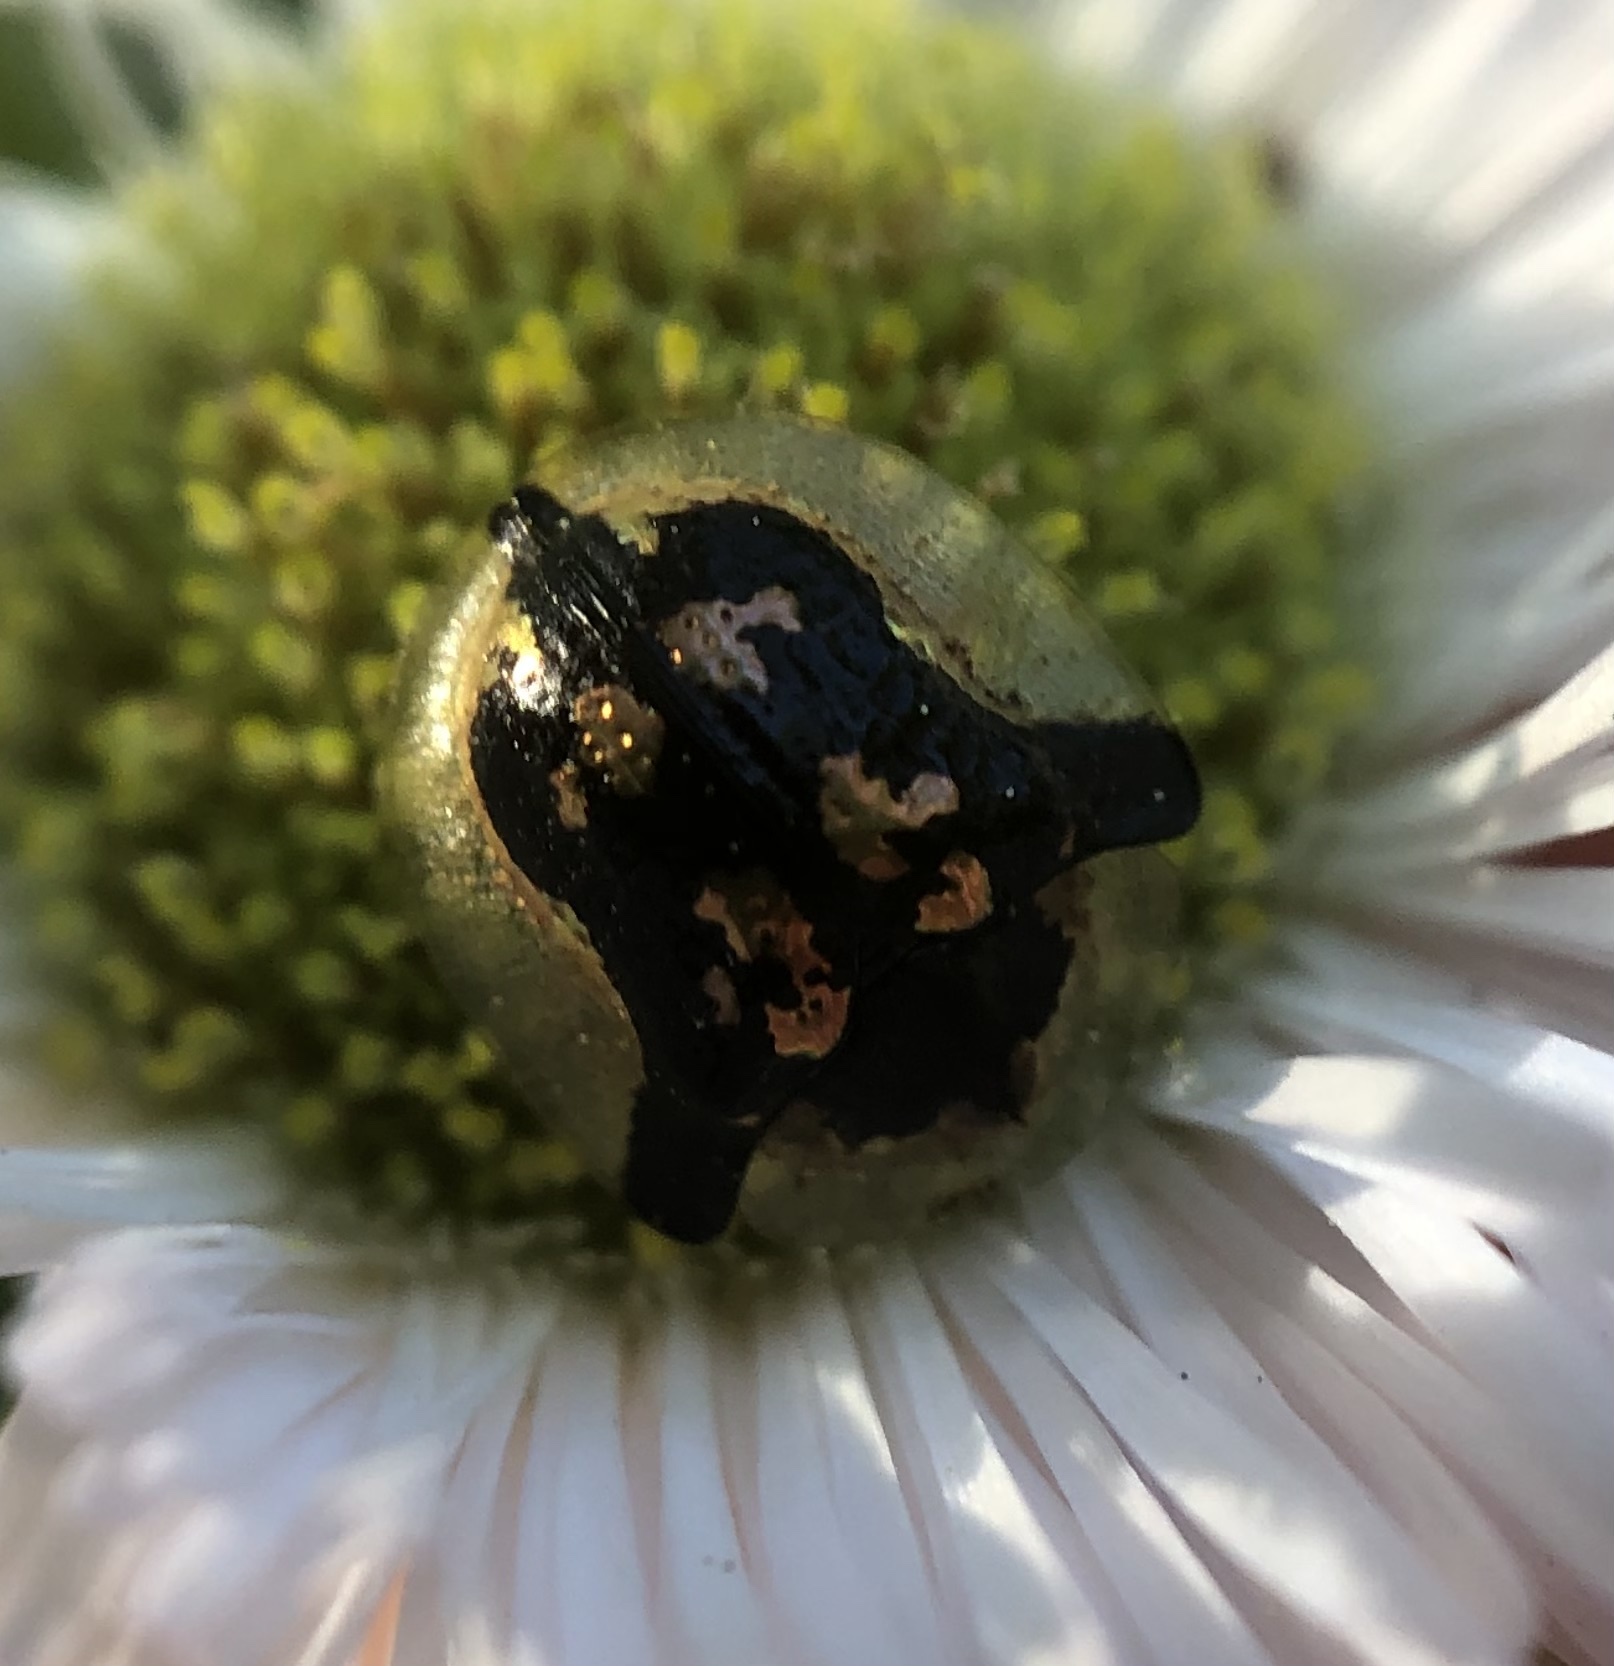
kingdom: Animalia
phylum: Arthropoda
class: Insecta
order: Coleoptera
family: Chrysomelidae
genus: Deloyala
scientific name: Deloyala guttata
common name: Mottled tortoise beetle
